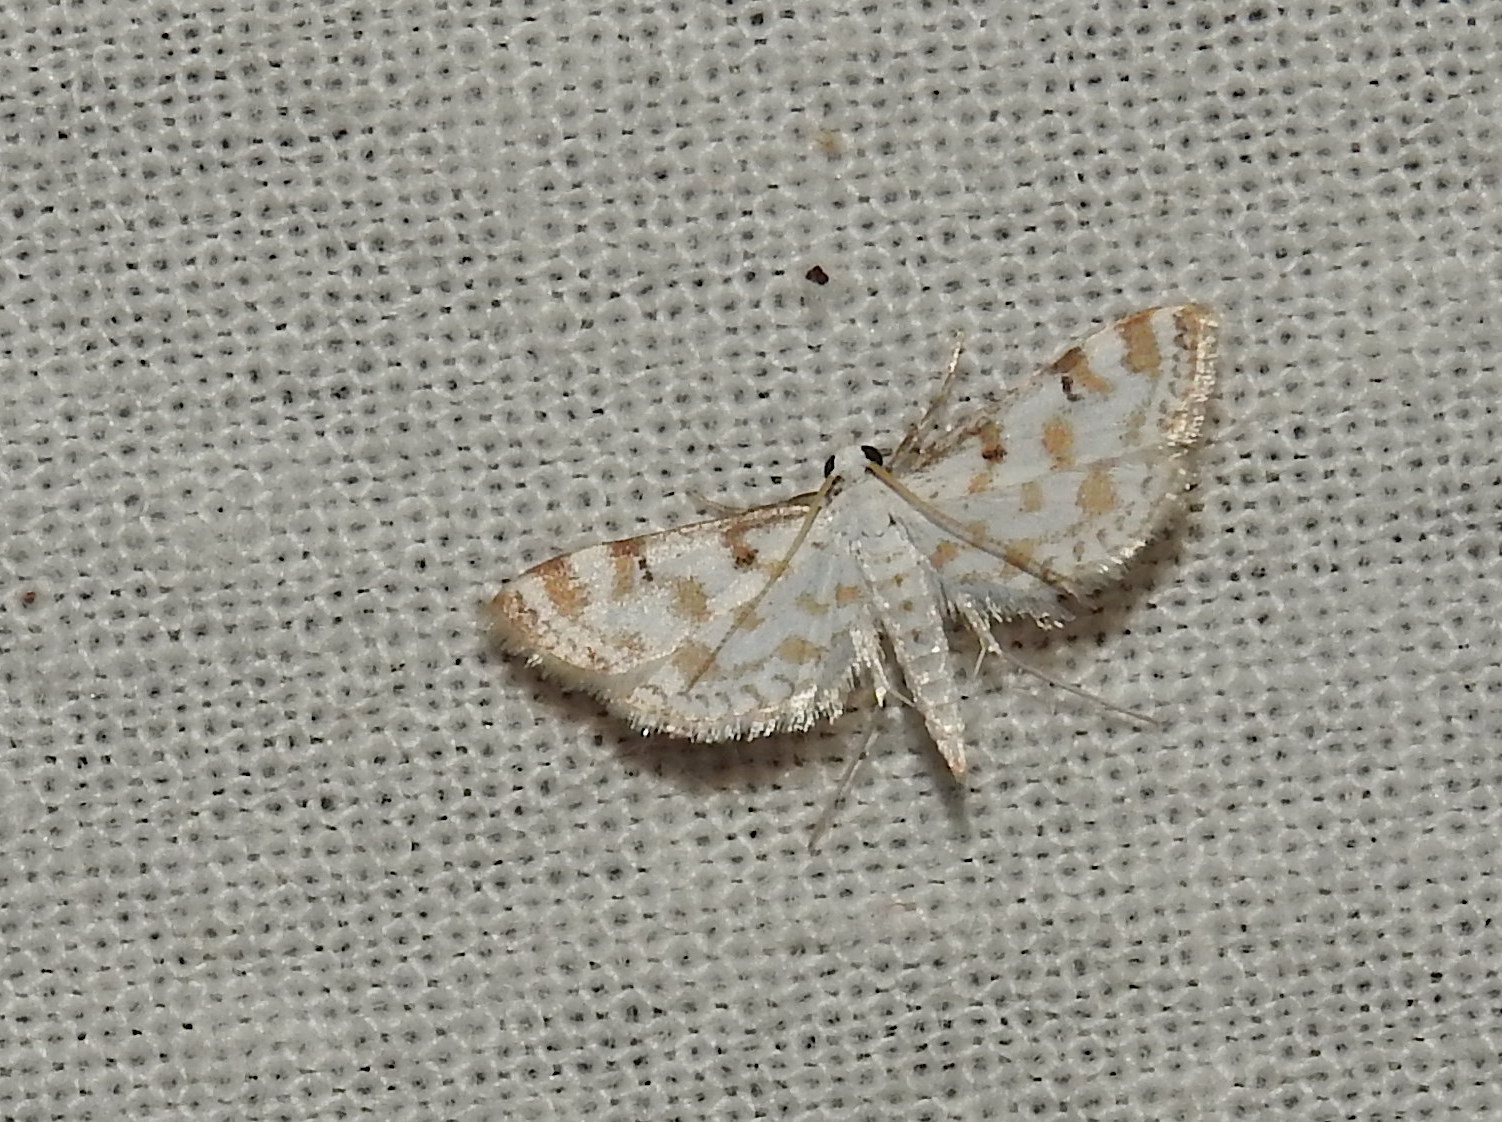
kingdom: Animalia
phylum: Arthropoda
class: Insecta
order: Lepidoptera
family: Crambidae
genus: Parapoynx
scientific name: Parapoynx stagnalis
